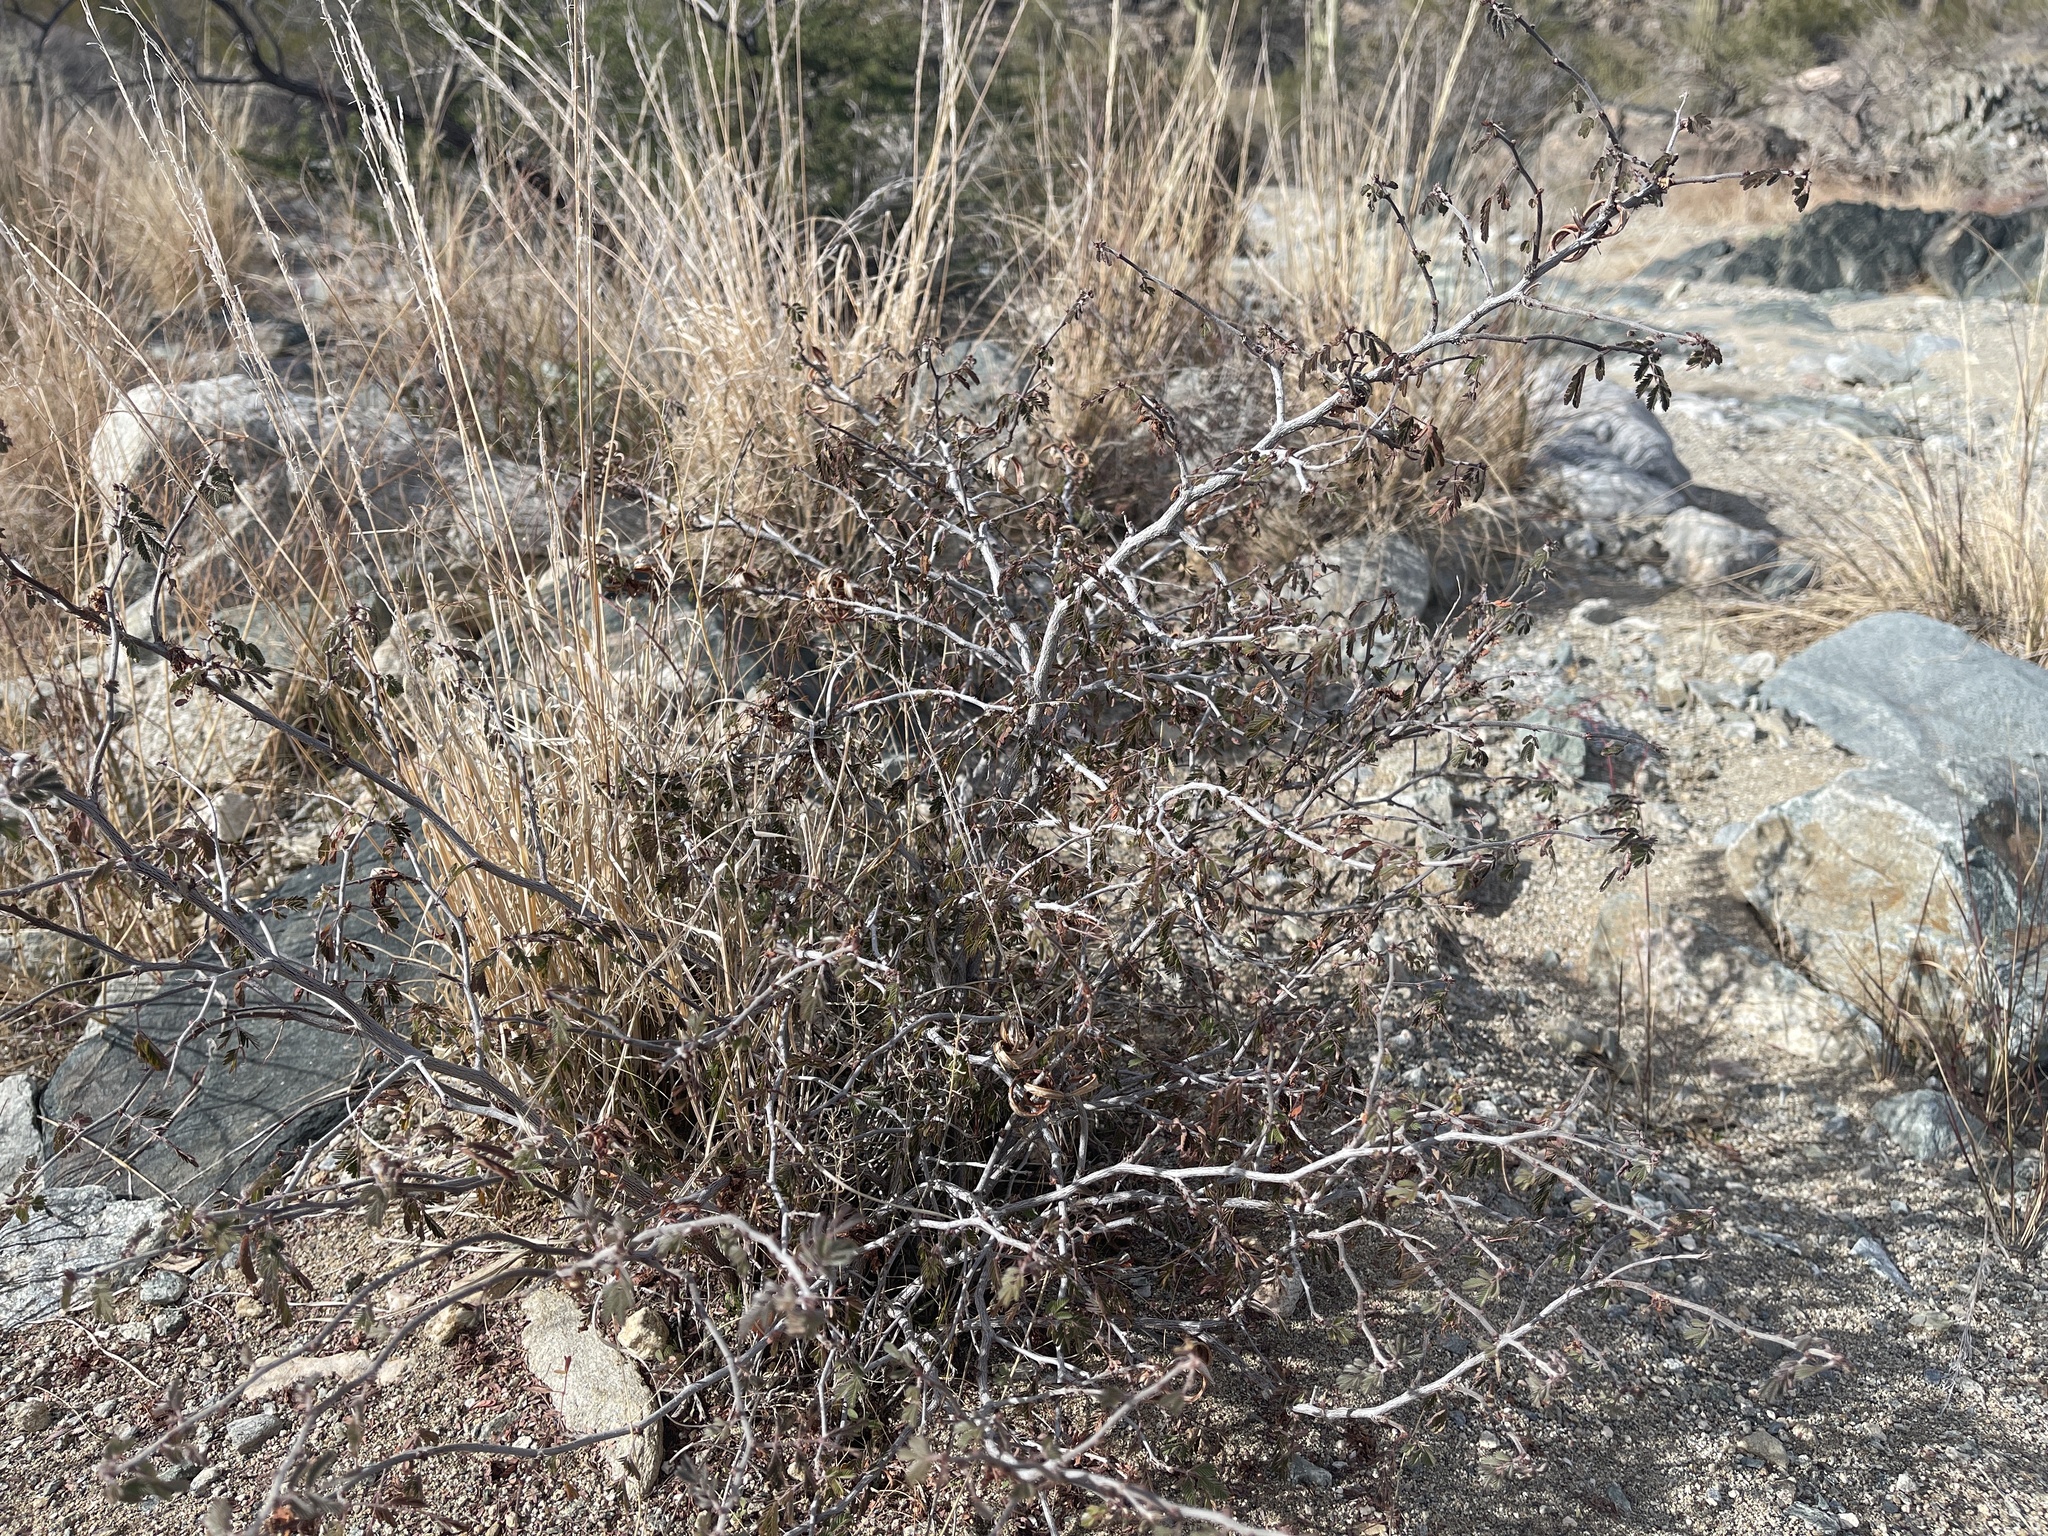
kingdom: Plantae
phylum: Tracheophyta
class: Magnoliopsida
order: Fabales
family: Fabaceae
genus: Calliandra
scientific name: Calliandra eriophylla
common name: Fairy-duster
